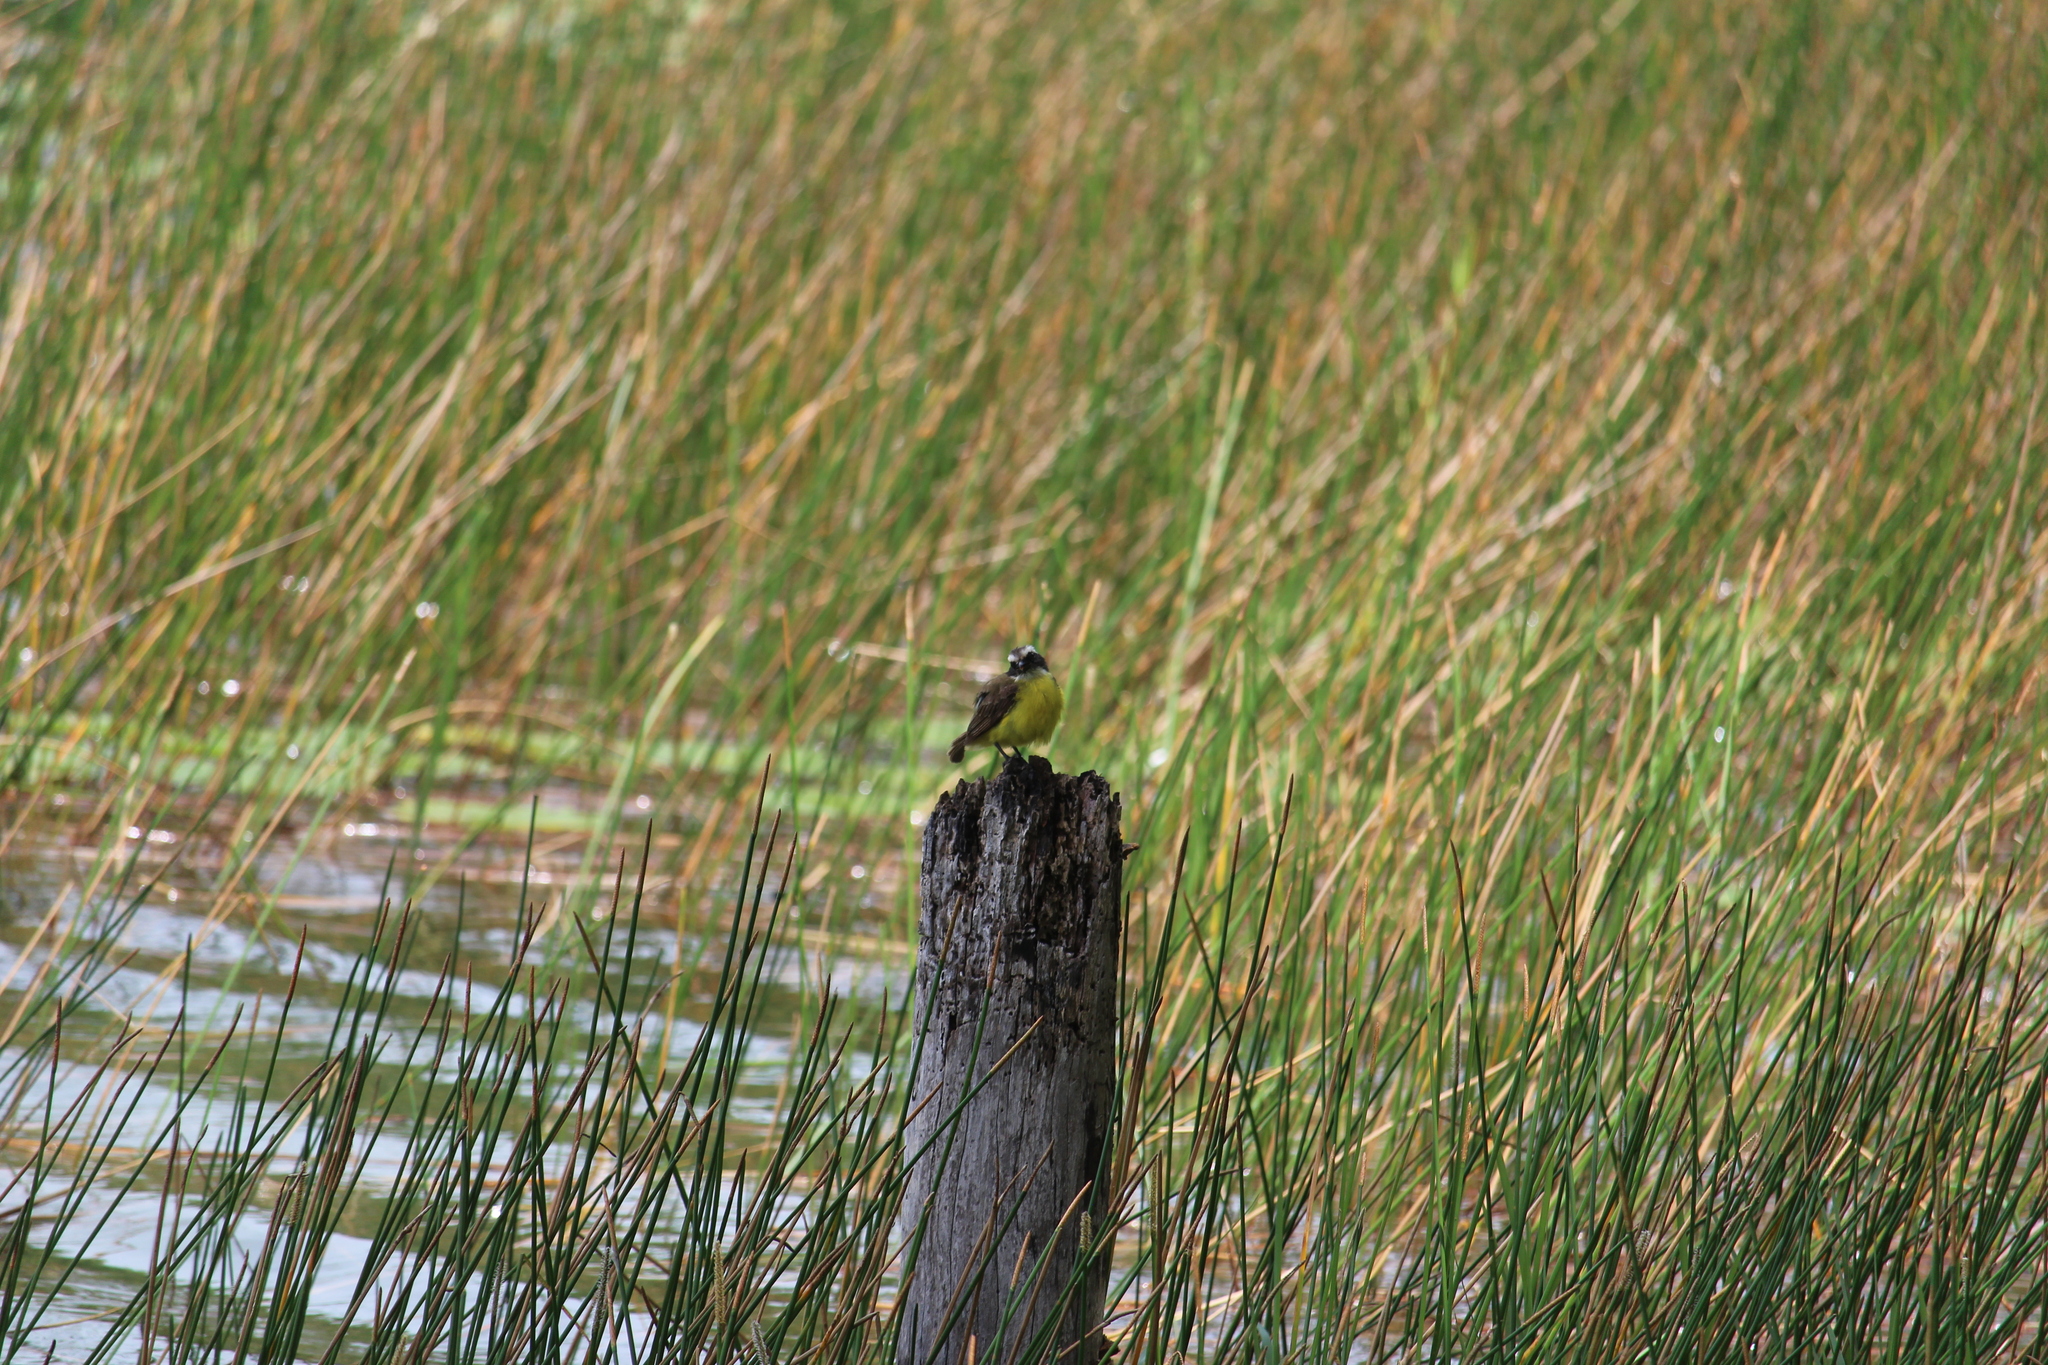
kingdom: Animalia
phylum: Chordata
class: Aves
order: Passeriformes
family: Tyrannidae
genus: Myiozetetes
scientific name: Myiozetetes similis
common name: Social flycatcher
